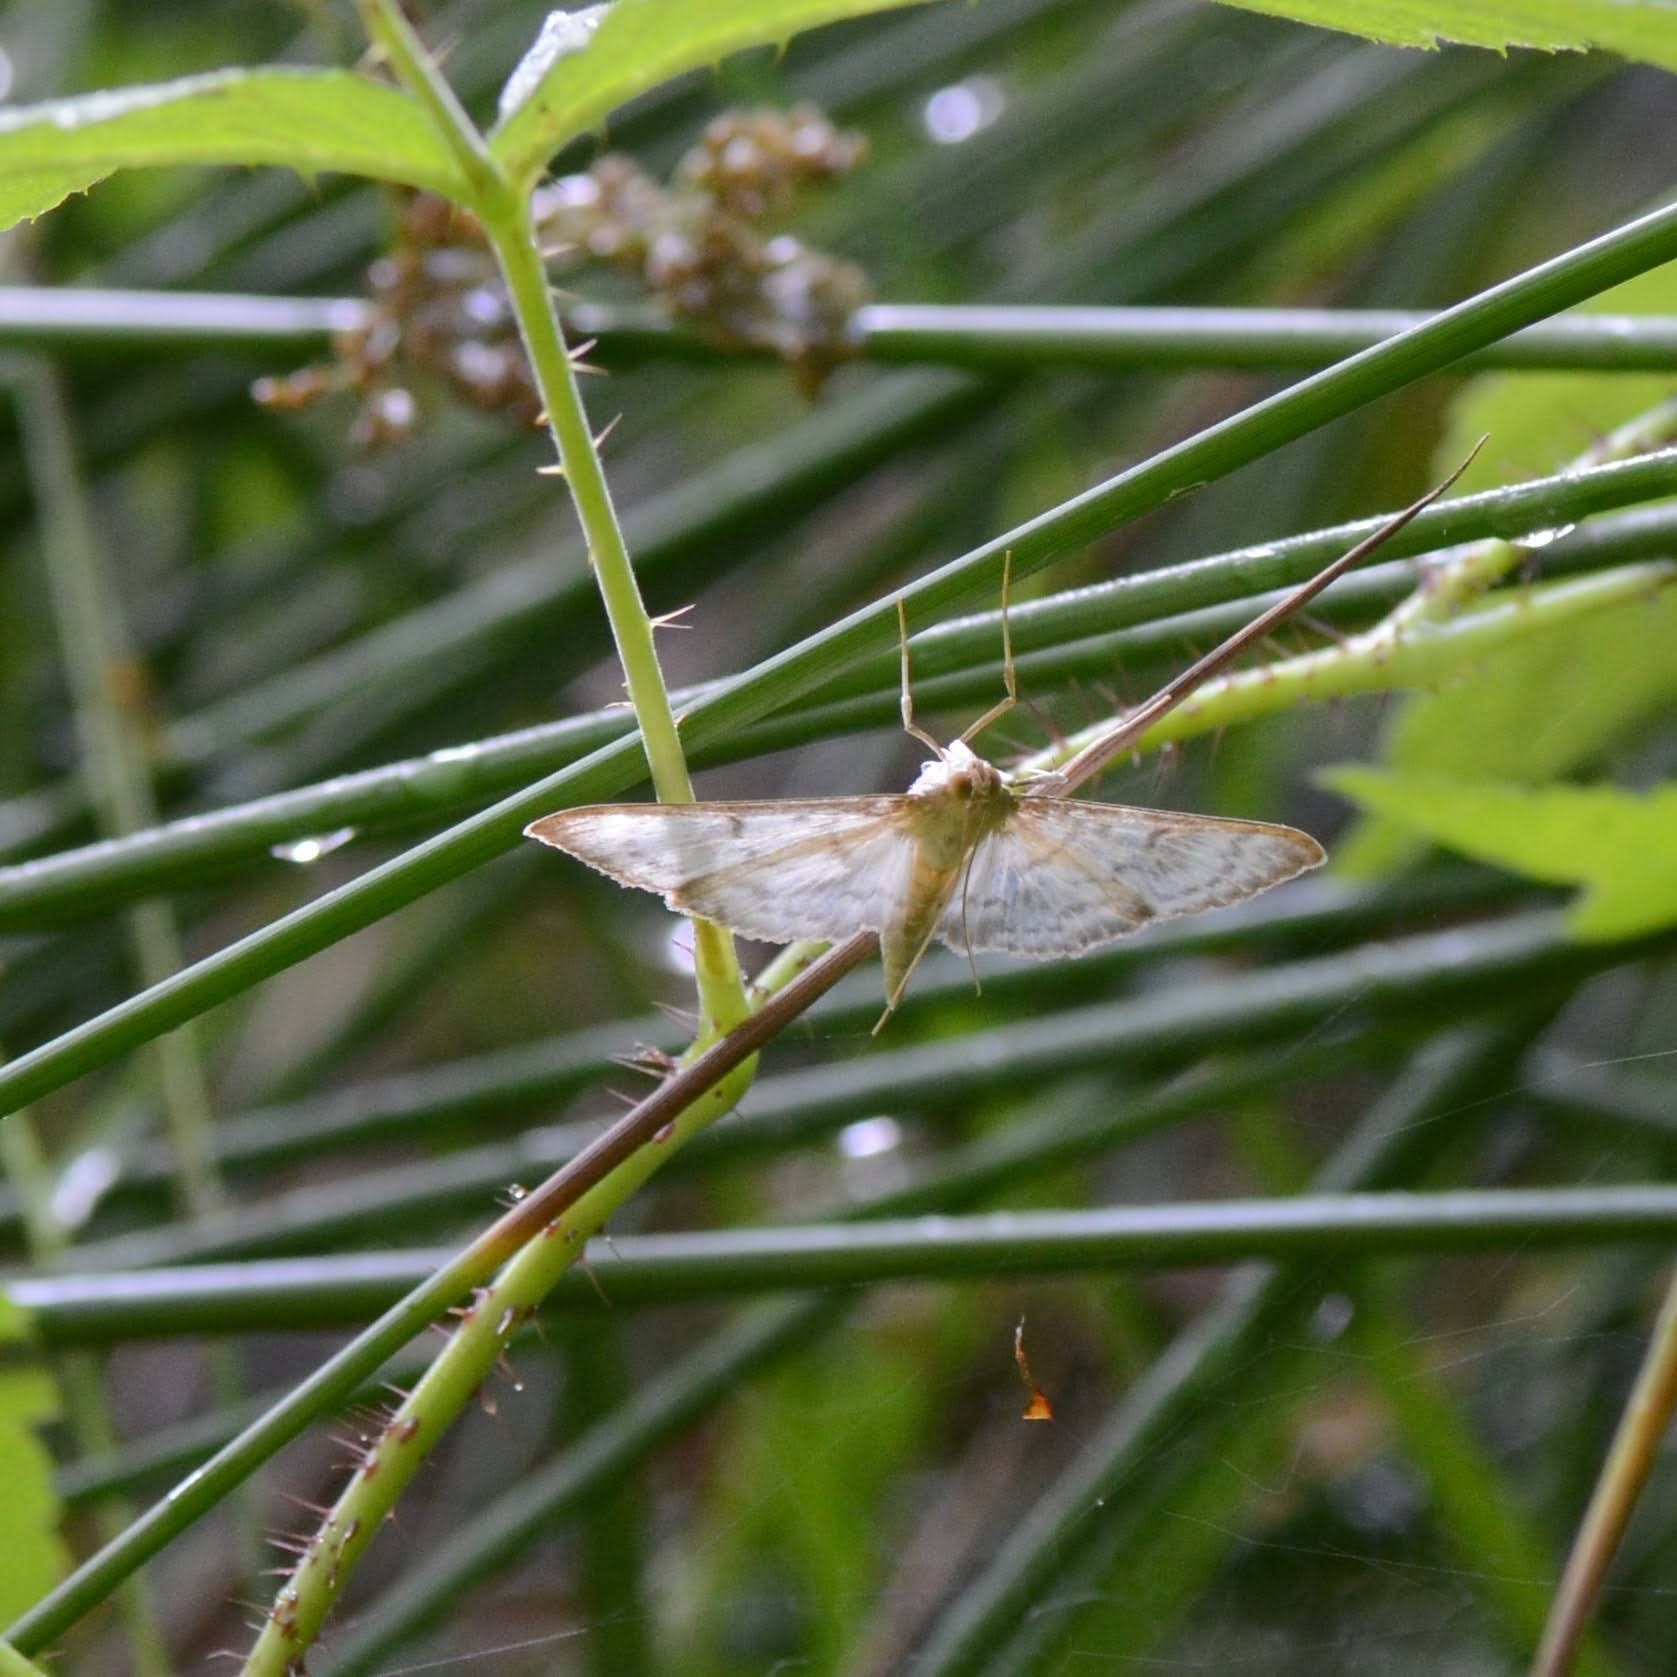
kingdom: Animalia
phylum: Arthropoda
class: Insecta
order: Lepidoptera
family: Crambidae
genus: Patania
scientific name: Patania ruralis
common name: Mother of pearl
